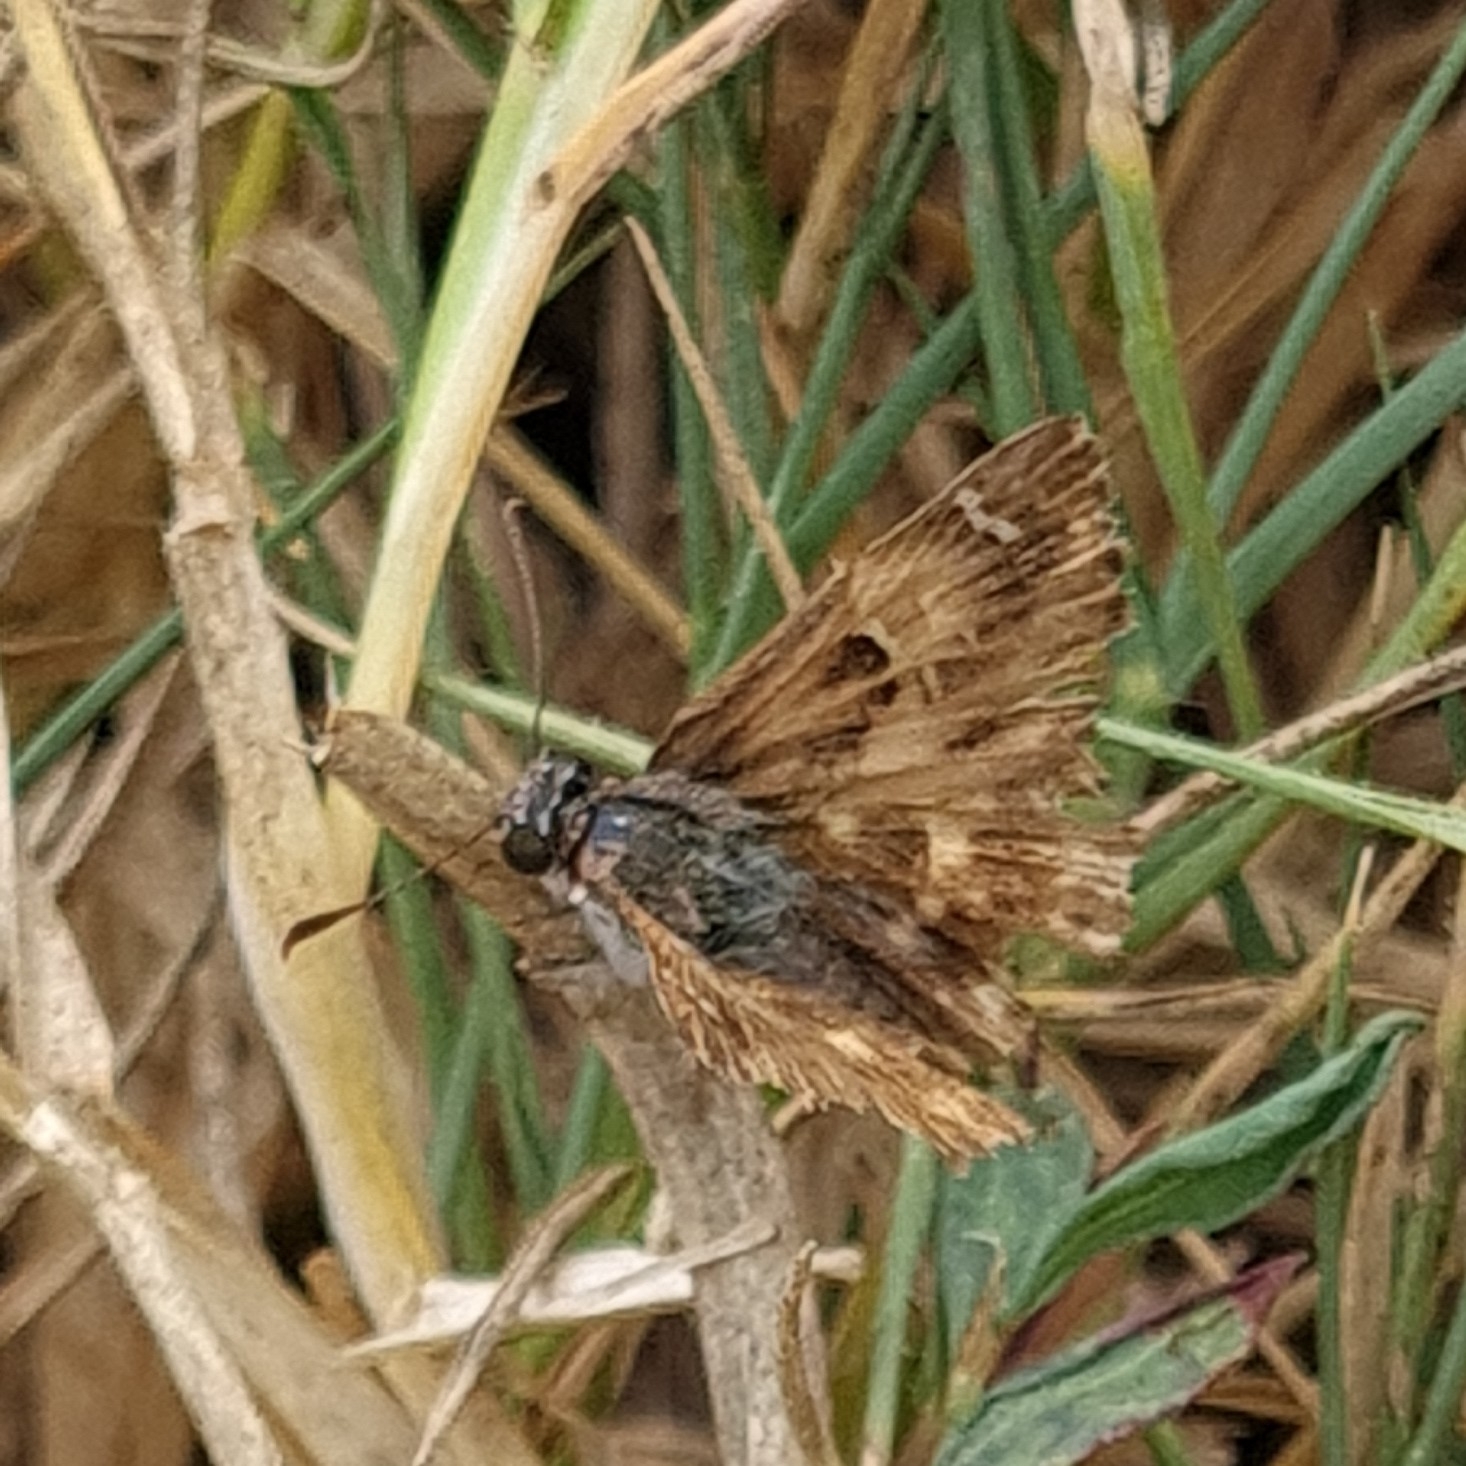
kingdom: Animalia
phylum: Arthropoda
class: Insecta
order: Lepidoptera
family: Hesperiidae
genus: Carcharodus
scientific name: Carcharodus alceae
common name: Mallow skipper
